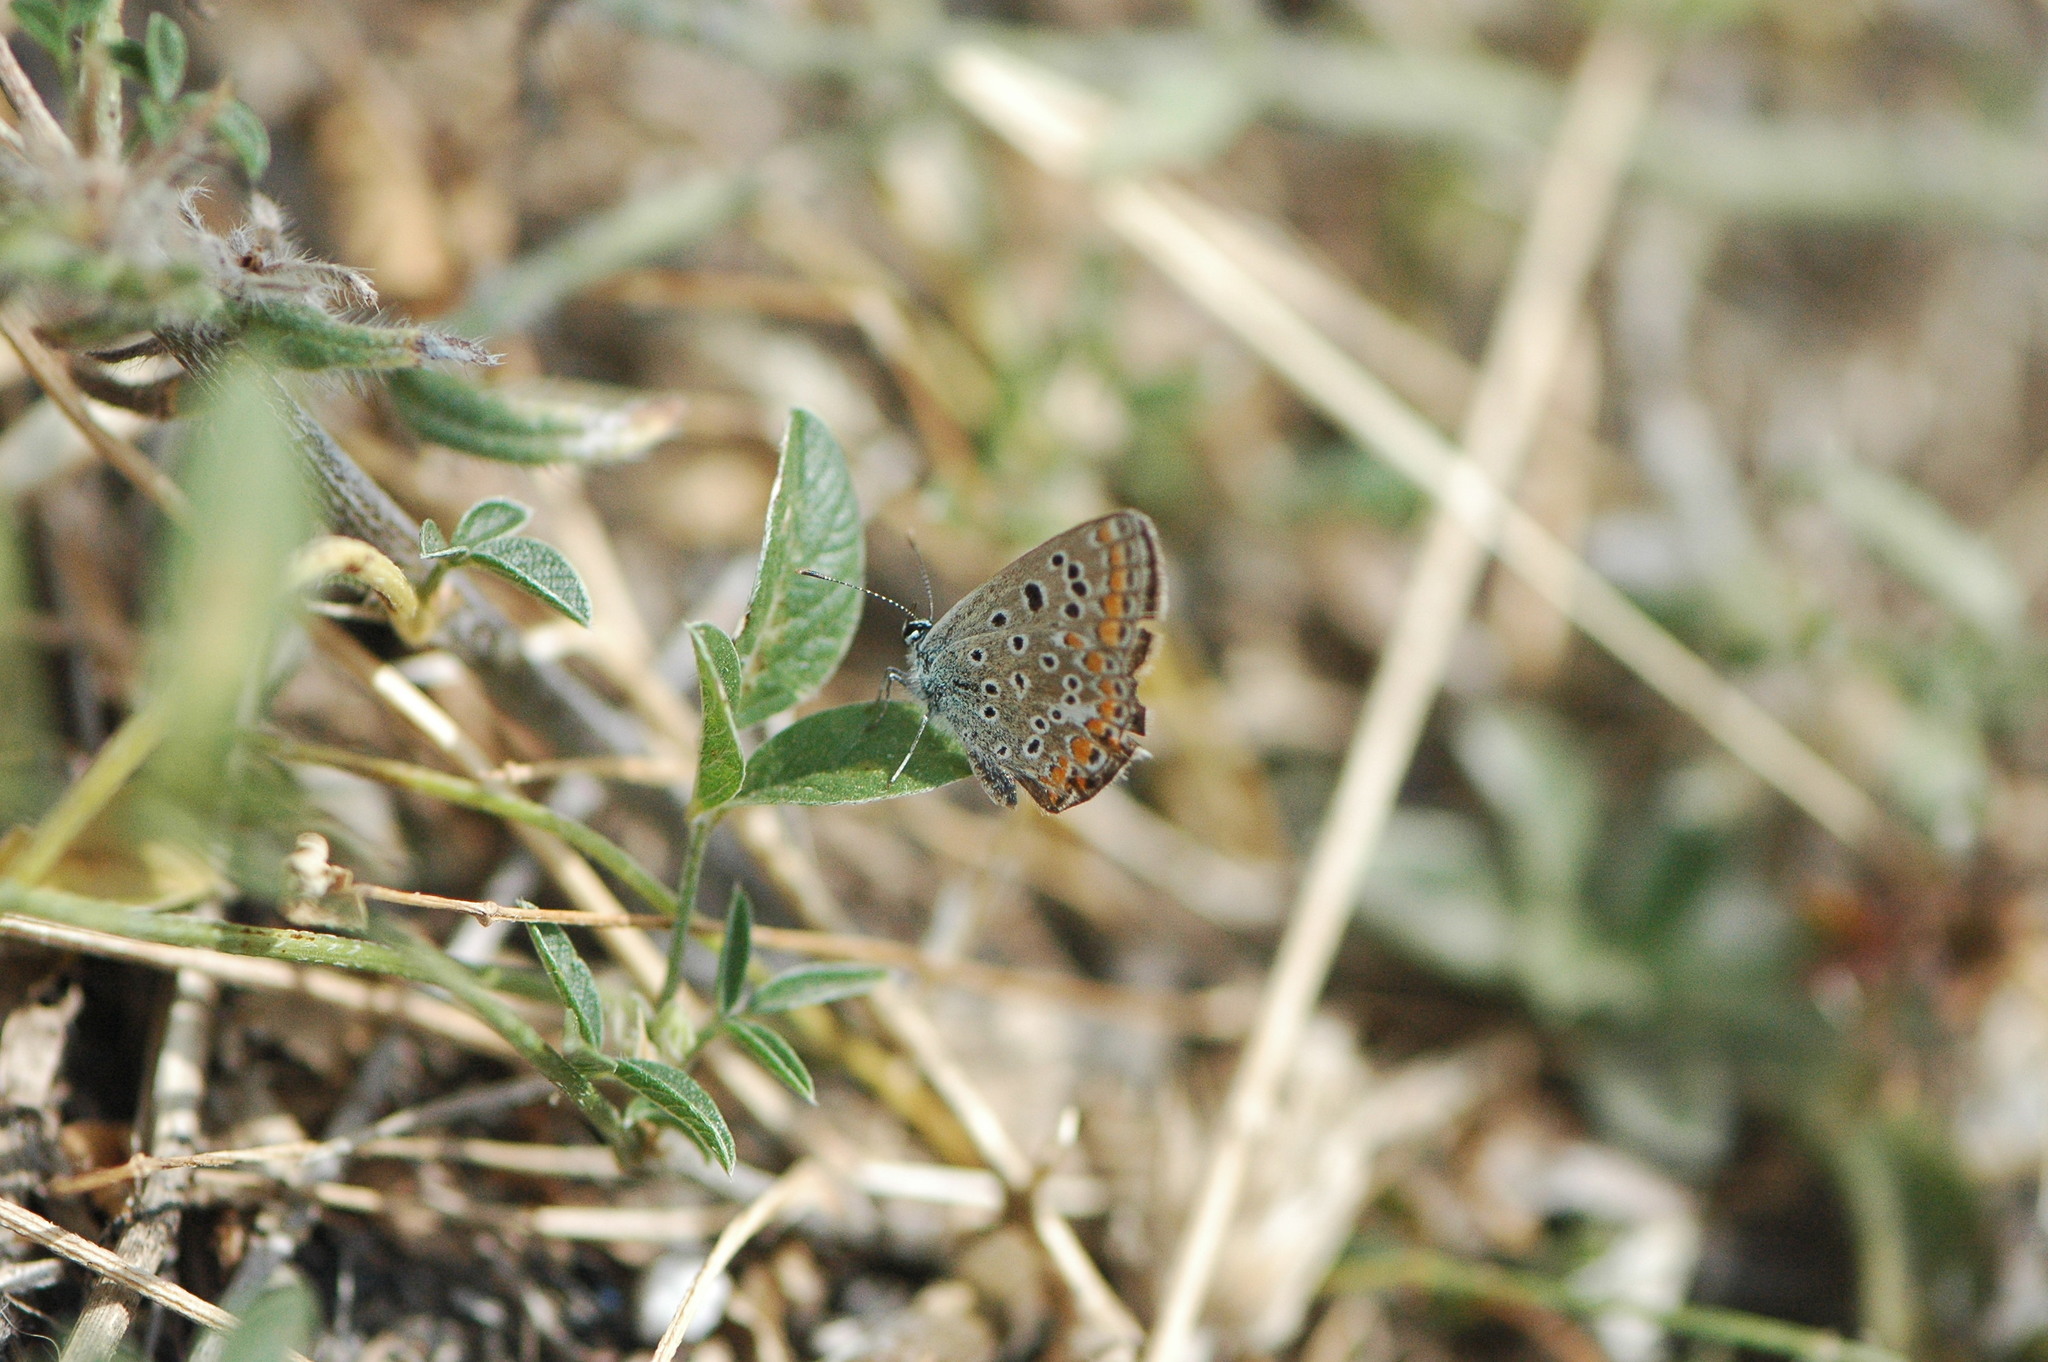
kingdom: Animalia
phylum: Arthropoda
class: Insecta
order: Lepidoptera
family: Lycaenidae
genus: Polyommatus
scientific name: Polyommatus celina
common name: Austaut's blue
